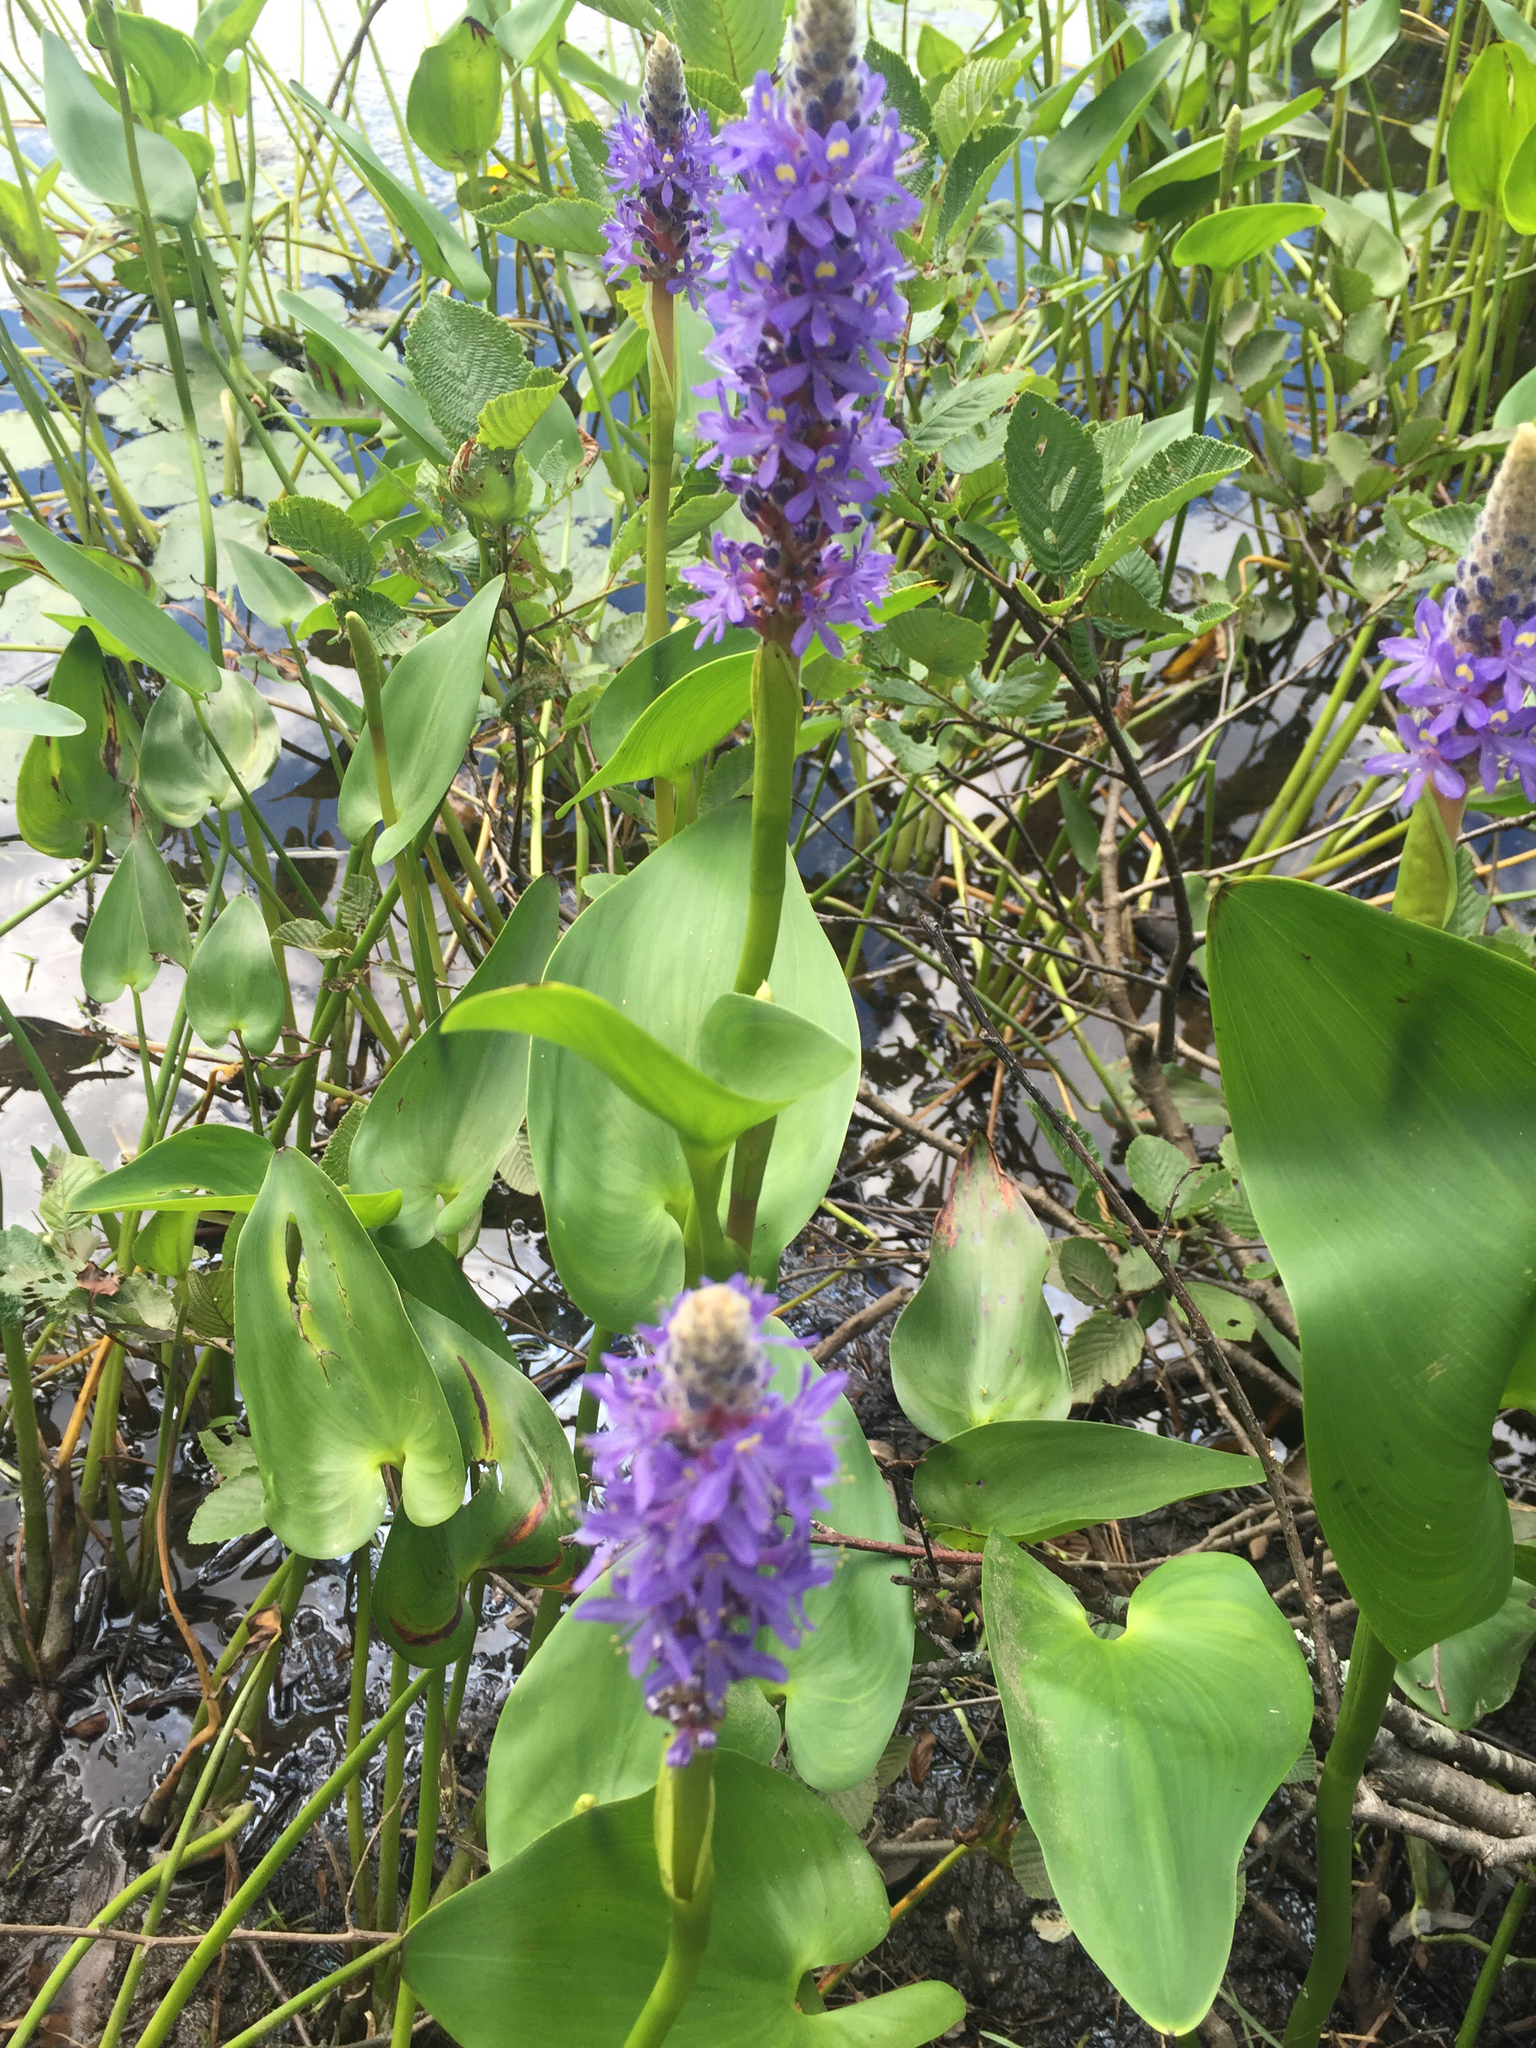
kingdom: Plantae
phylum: Tracheophyta
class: Liliopsida
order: Commelinales
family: Pontederiaceae
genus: Pontederia
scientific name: Pontederia cordata
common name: Pickerelweed
